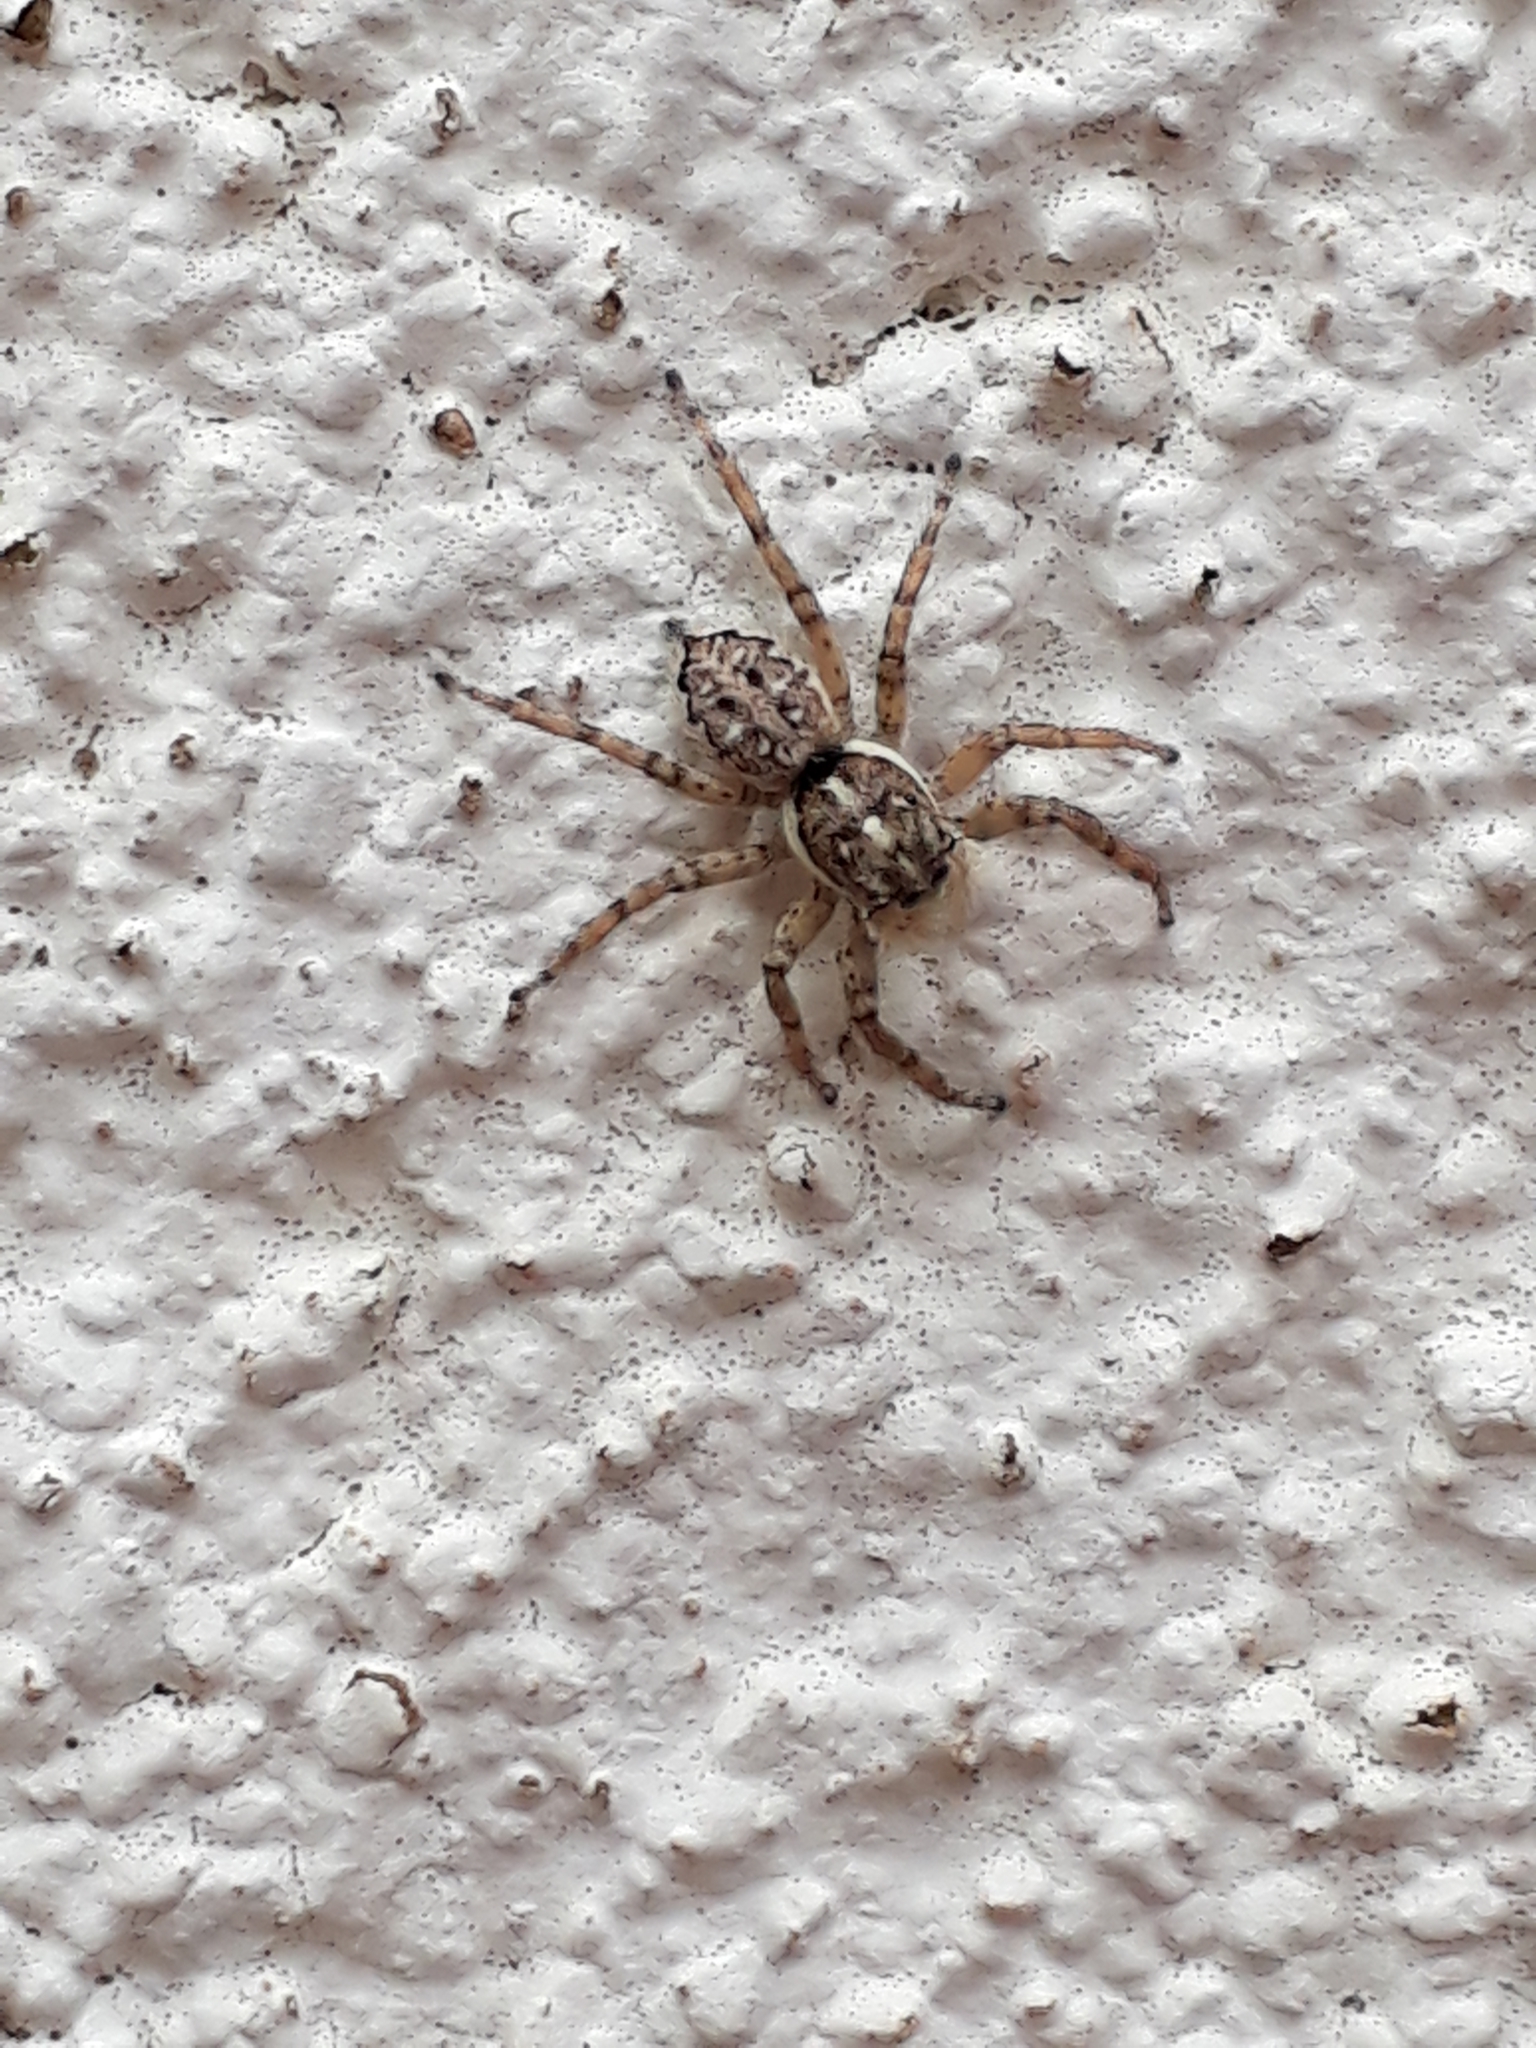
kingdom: Animalia
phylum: Arthropoda
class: Arachnida
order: Araneae
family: Salticidae
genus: Menemerus
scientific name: Menemerus semilimbatus
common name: Jumping spider
